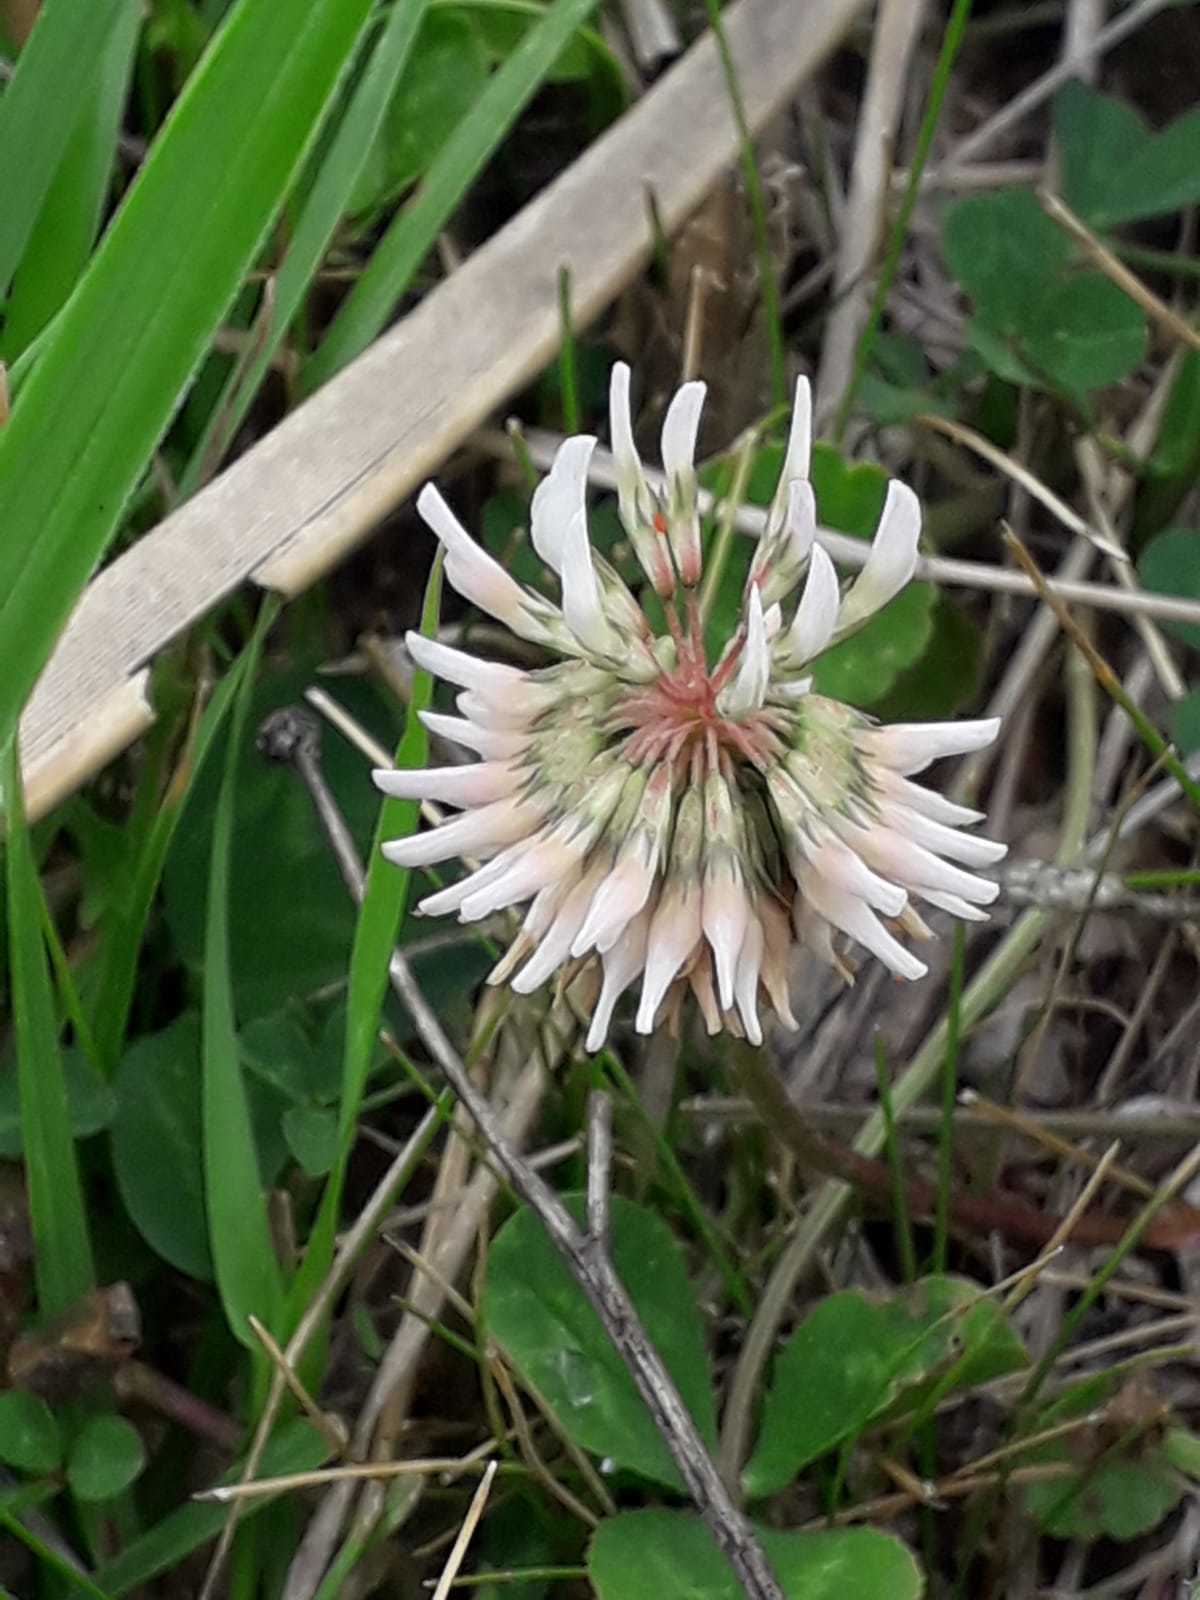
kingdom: Plantae
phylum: Tracheophyta
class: Magnoliopsida
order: Fabales
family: Fabaceae
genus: Trifolium
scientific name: Trifolium repens
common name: White clover
